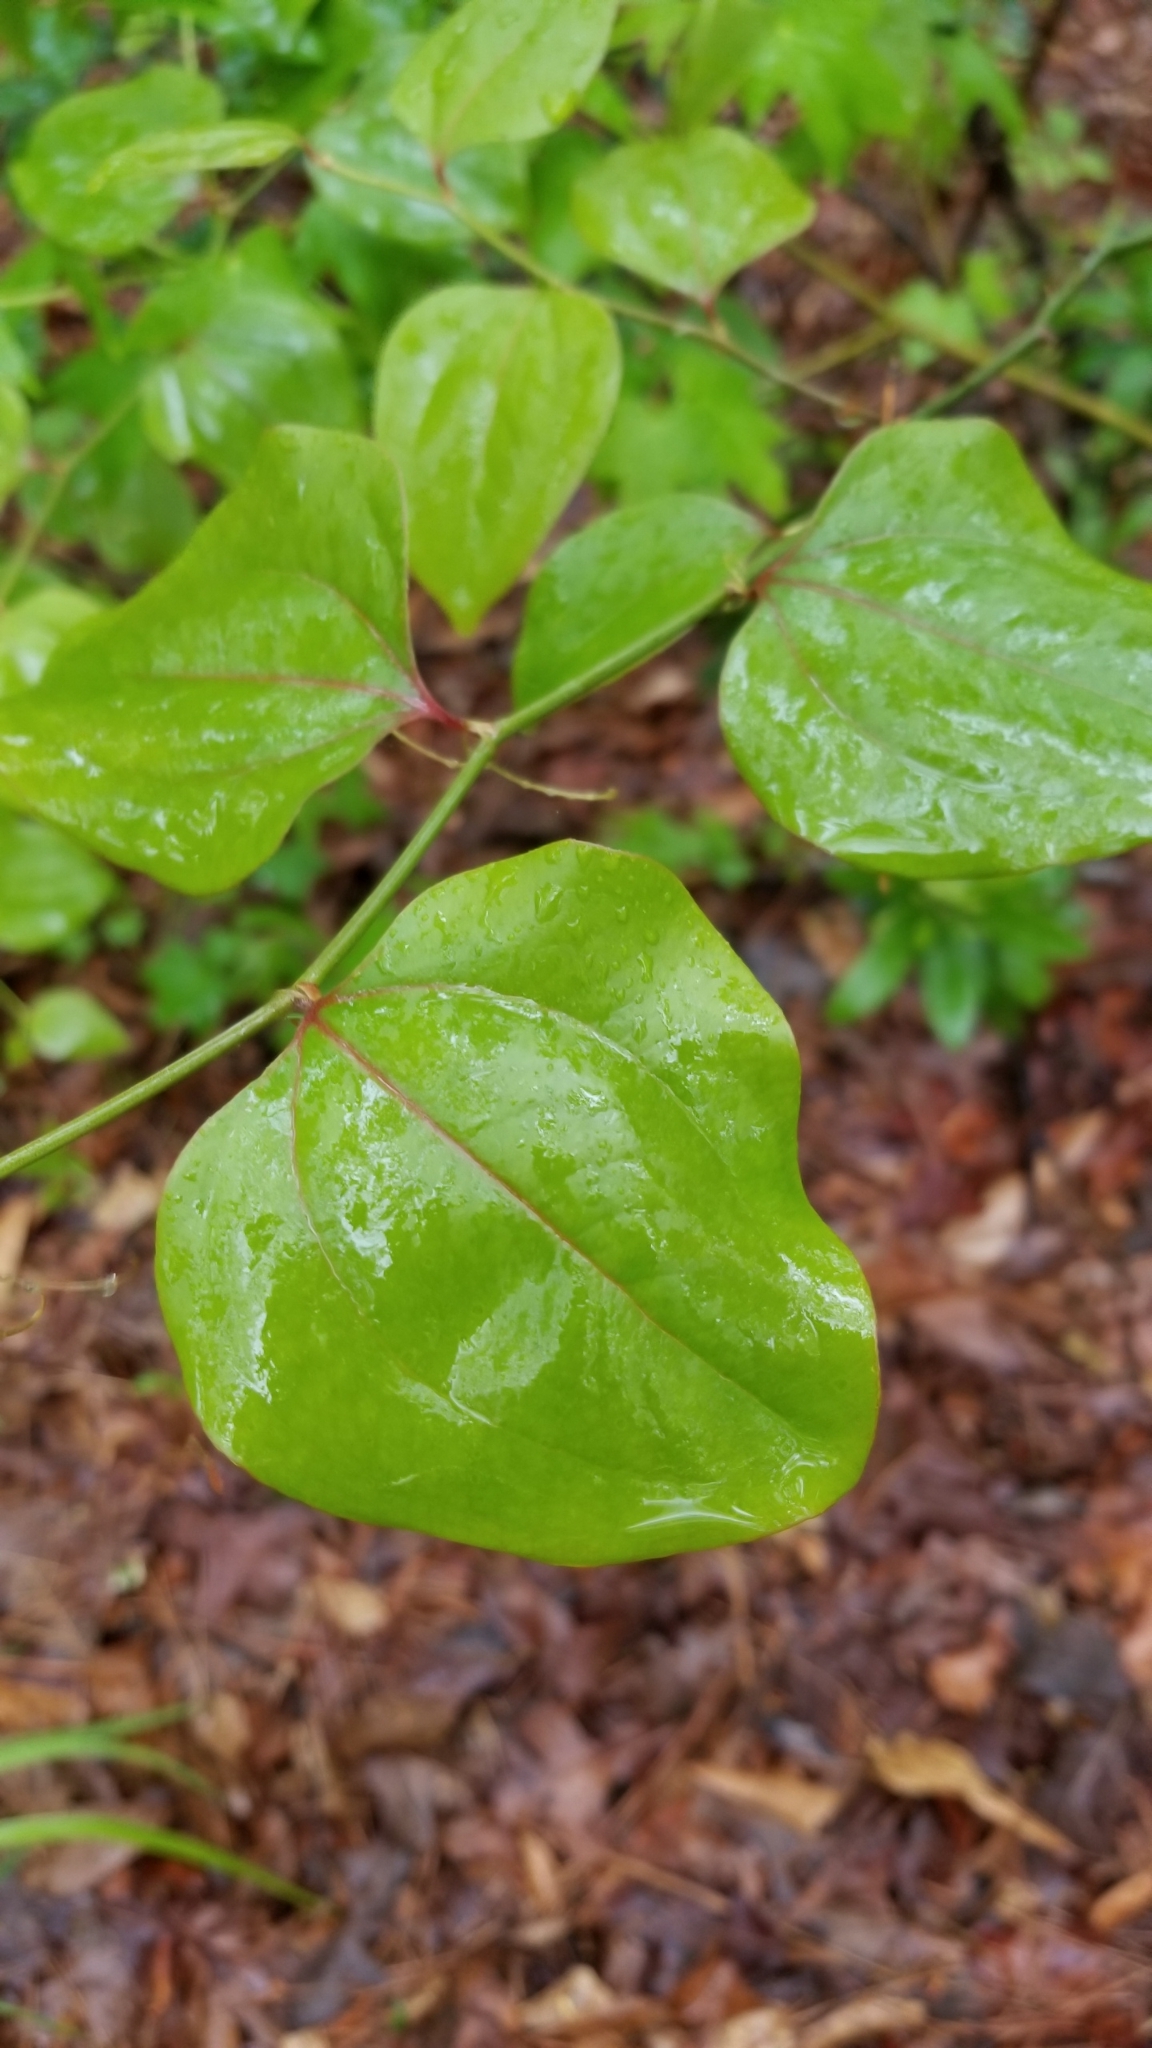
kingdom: Plantae
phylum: Tracheophyta
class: Liliopsida
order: Liliales
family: Smilacaceae
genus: Smilax
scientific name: Smilax rotundifolia
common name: Bullbriar
